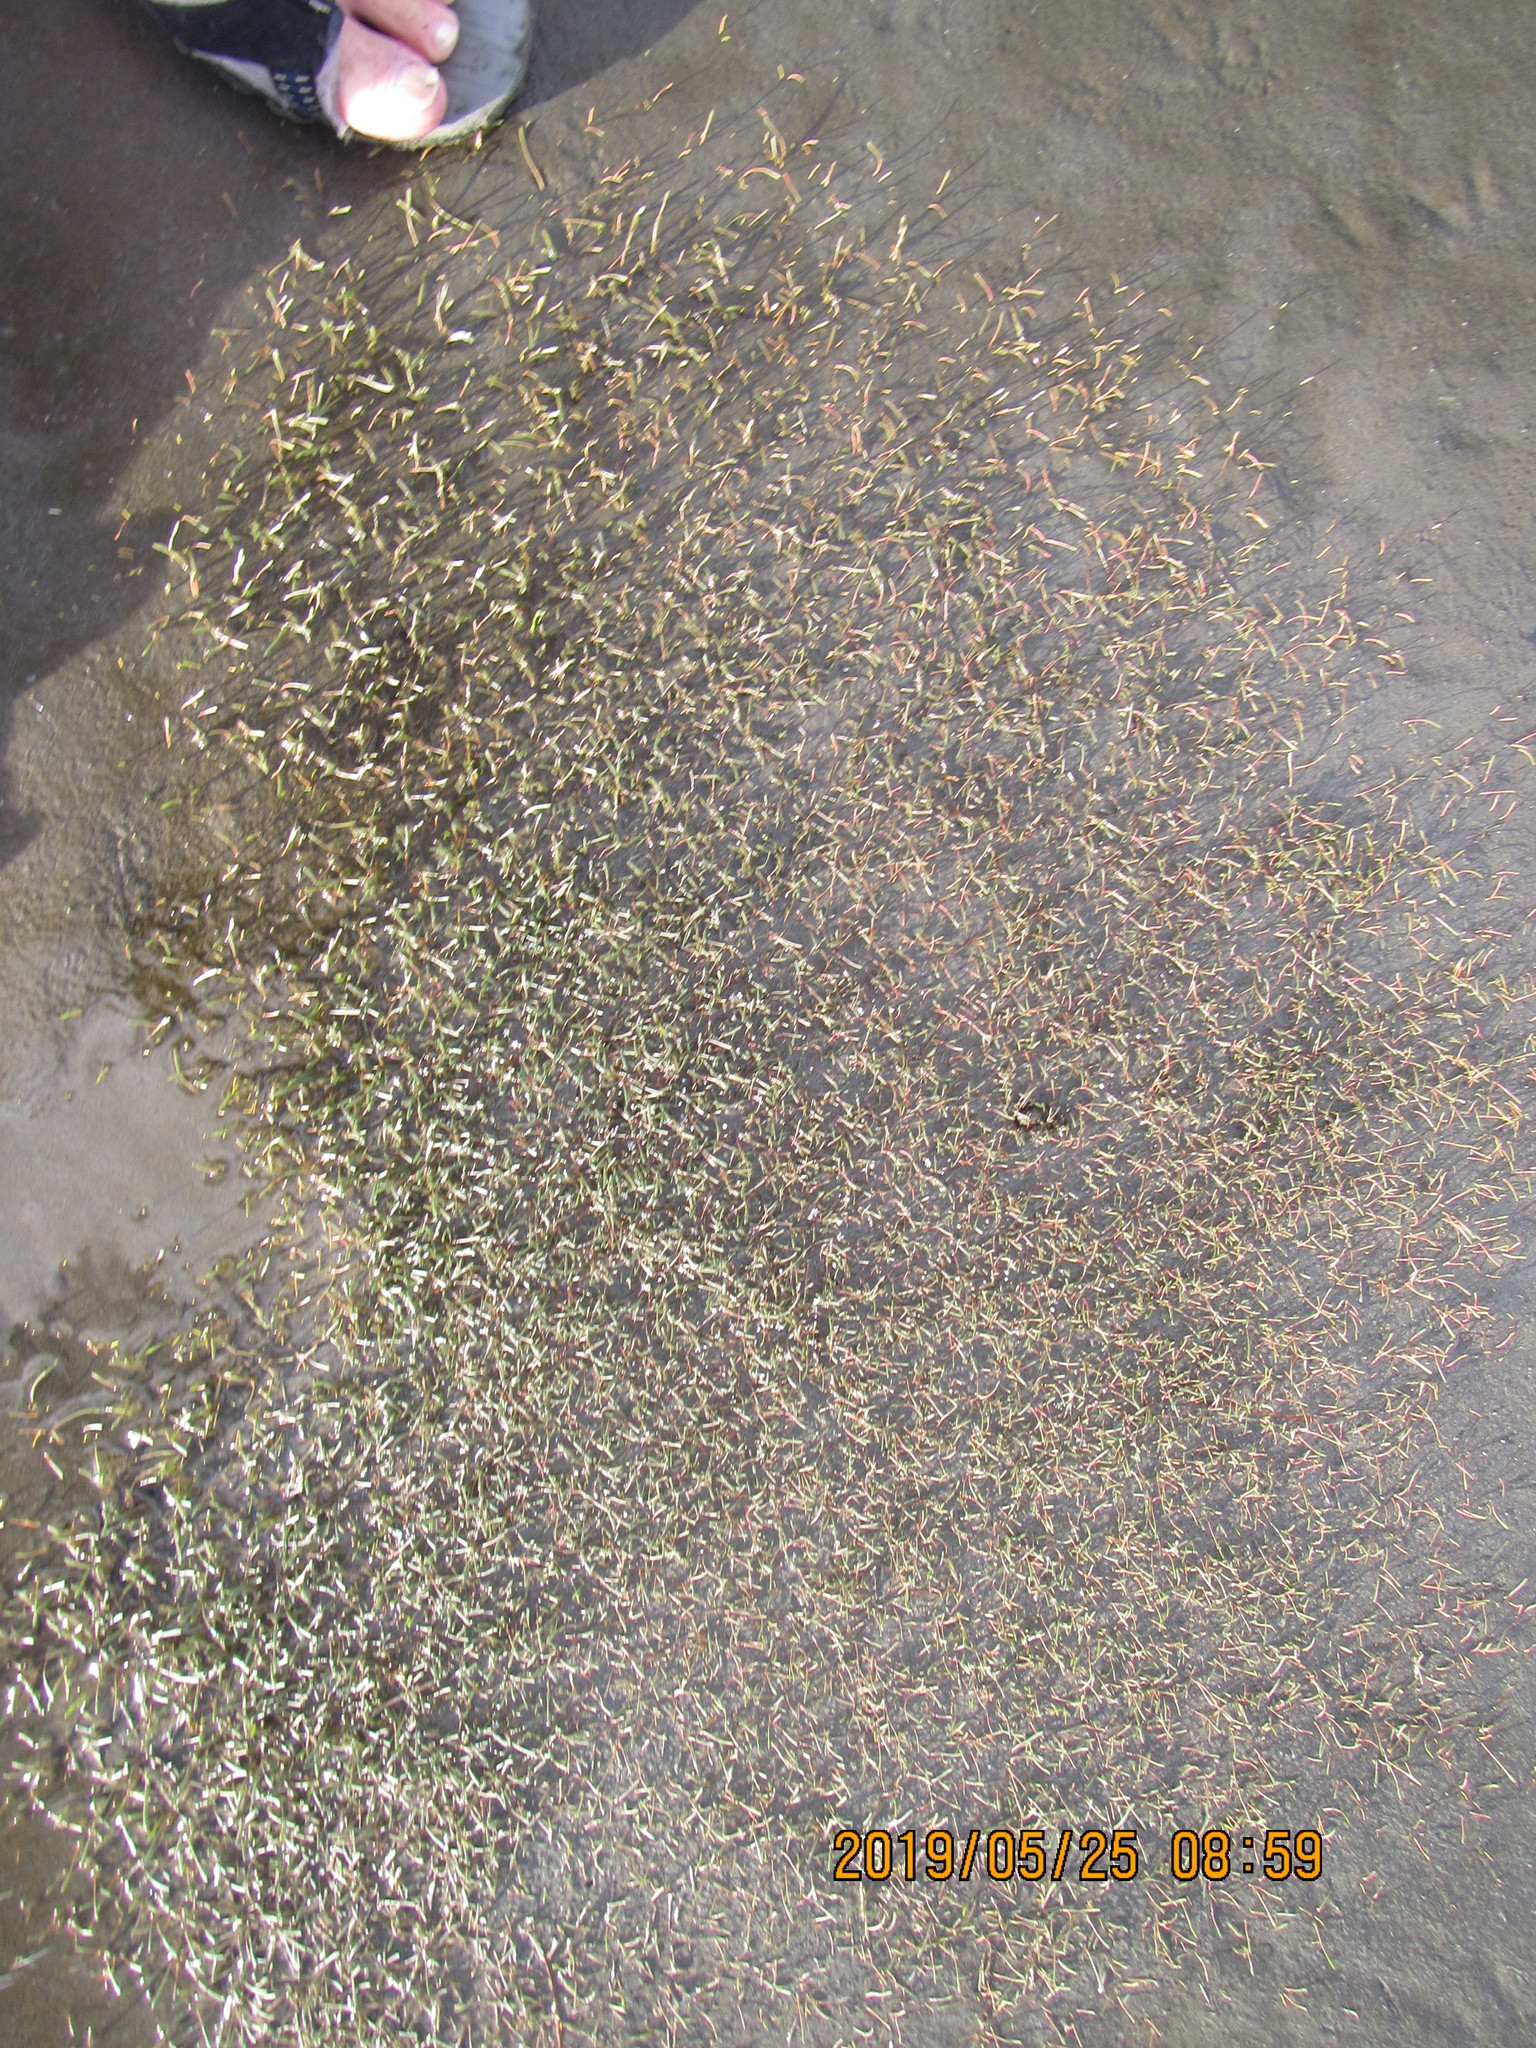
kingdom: Plantae
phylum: Tracheophyta
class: Magnoliopsida
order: Lamiales
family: Scrophulariaceae
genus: Limosella
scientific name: Limosella australis
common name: Welsh mudwort
